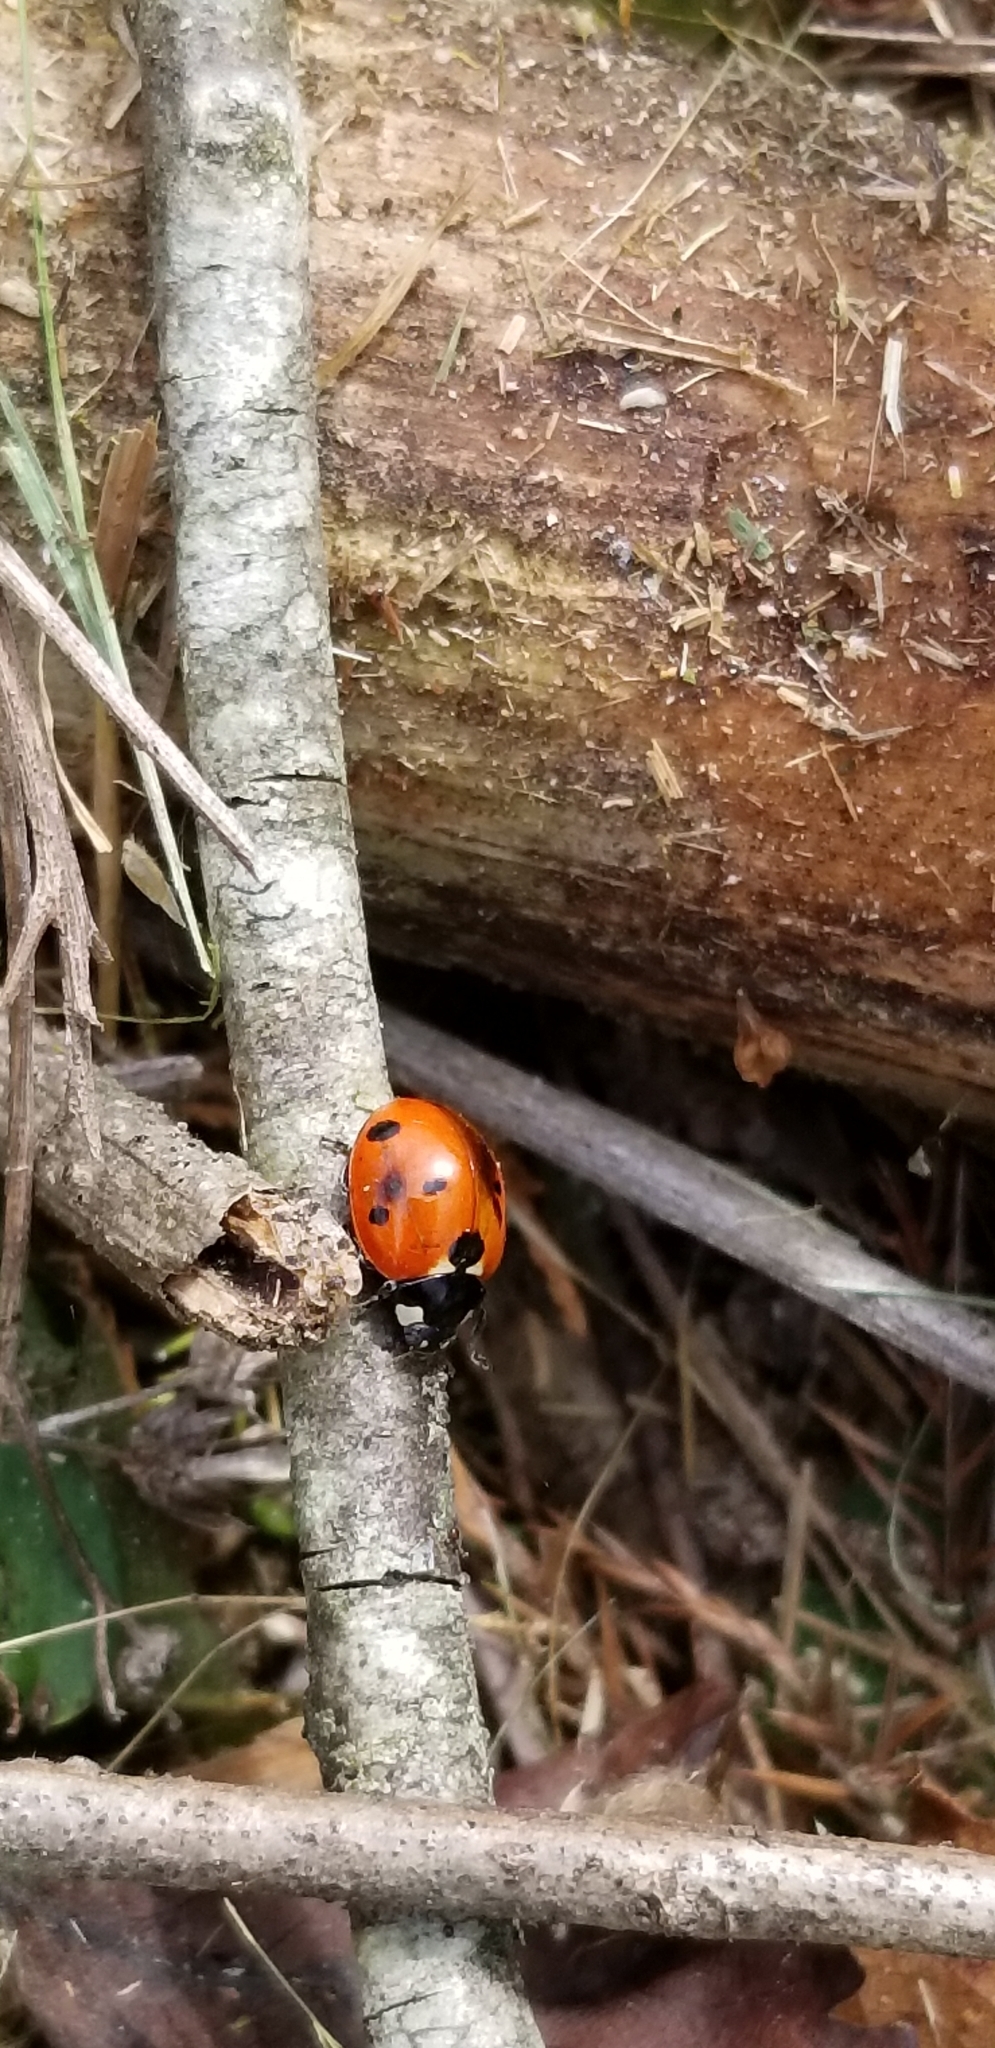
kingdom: Animalia
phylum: Arthropoda
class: Insecta
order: Coleoptera
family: Coccinellidae
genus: Coccinella
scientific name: Coccinella septempunctata
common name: Sevenspotted lady beetle
